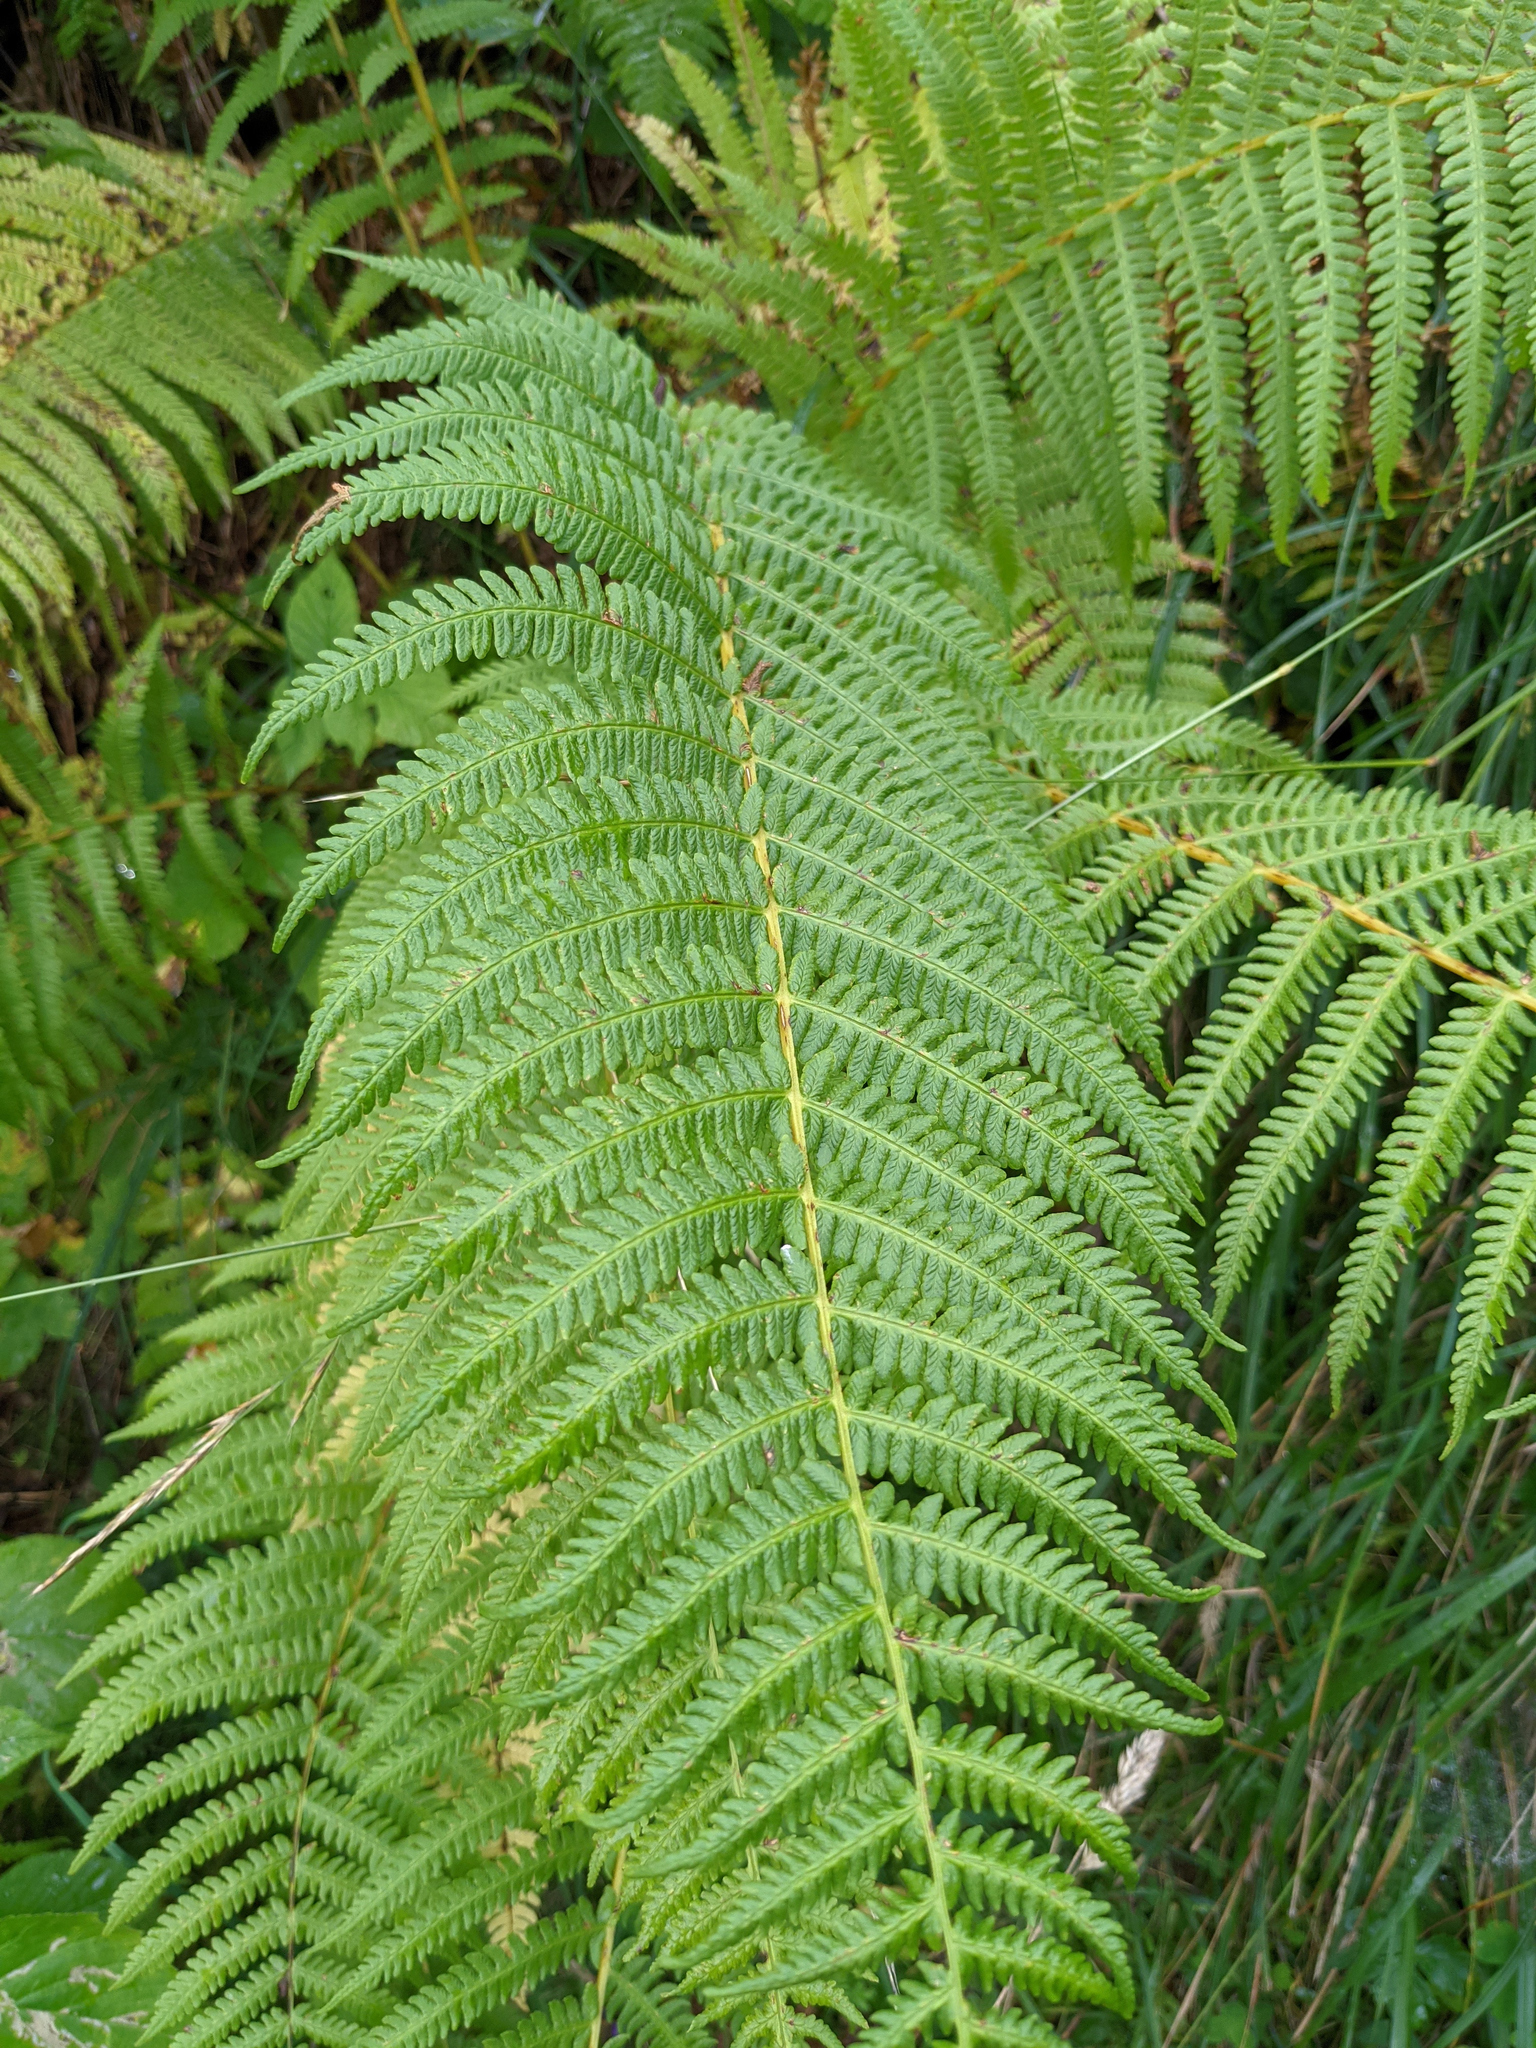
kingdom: Plantae
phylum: Tracheophyta
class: Polypodiopsida
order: Polypodiales
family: Thelypteridaceae
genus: Oreopteris
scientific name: Oreopteris limbosperma
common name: Lemon-scented fern
